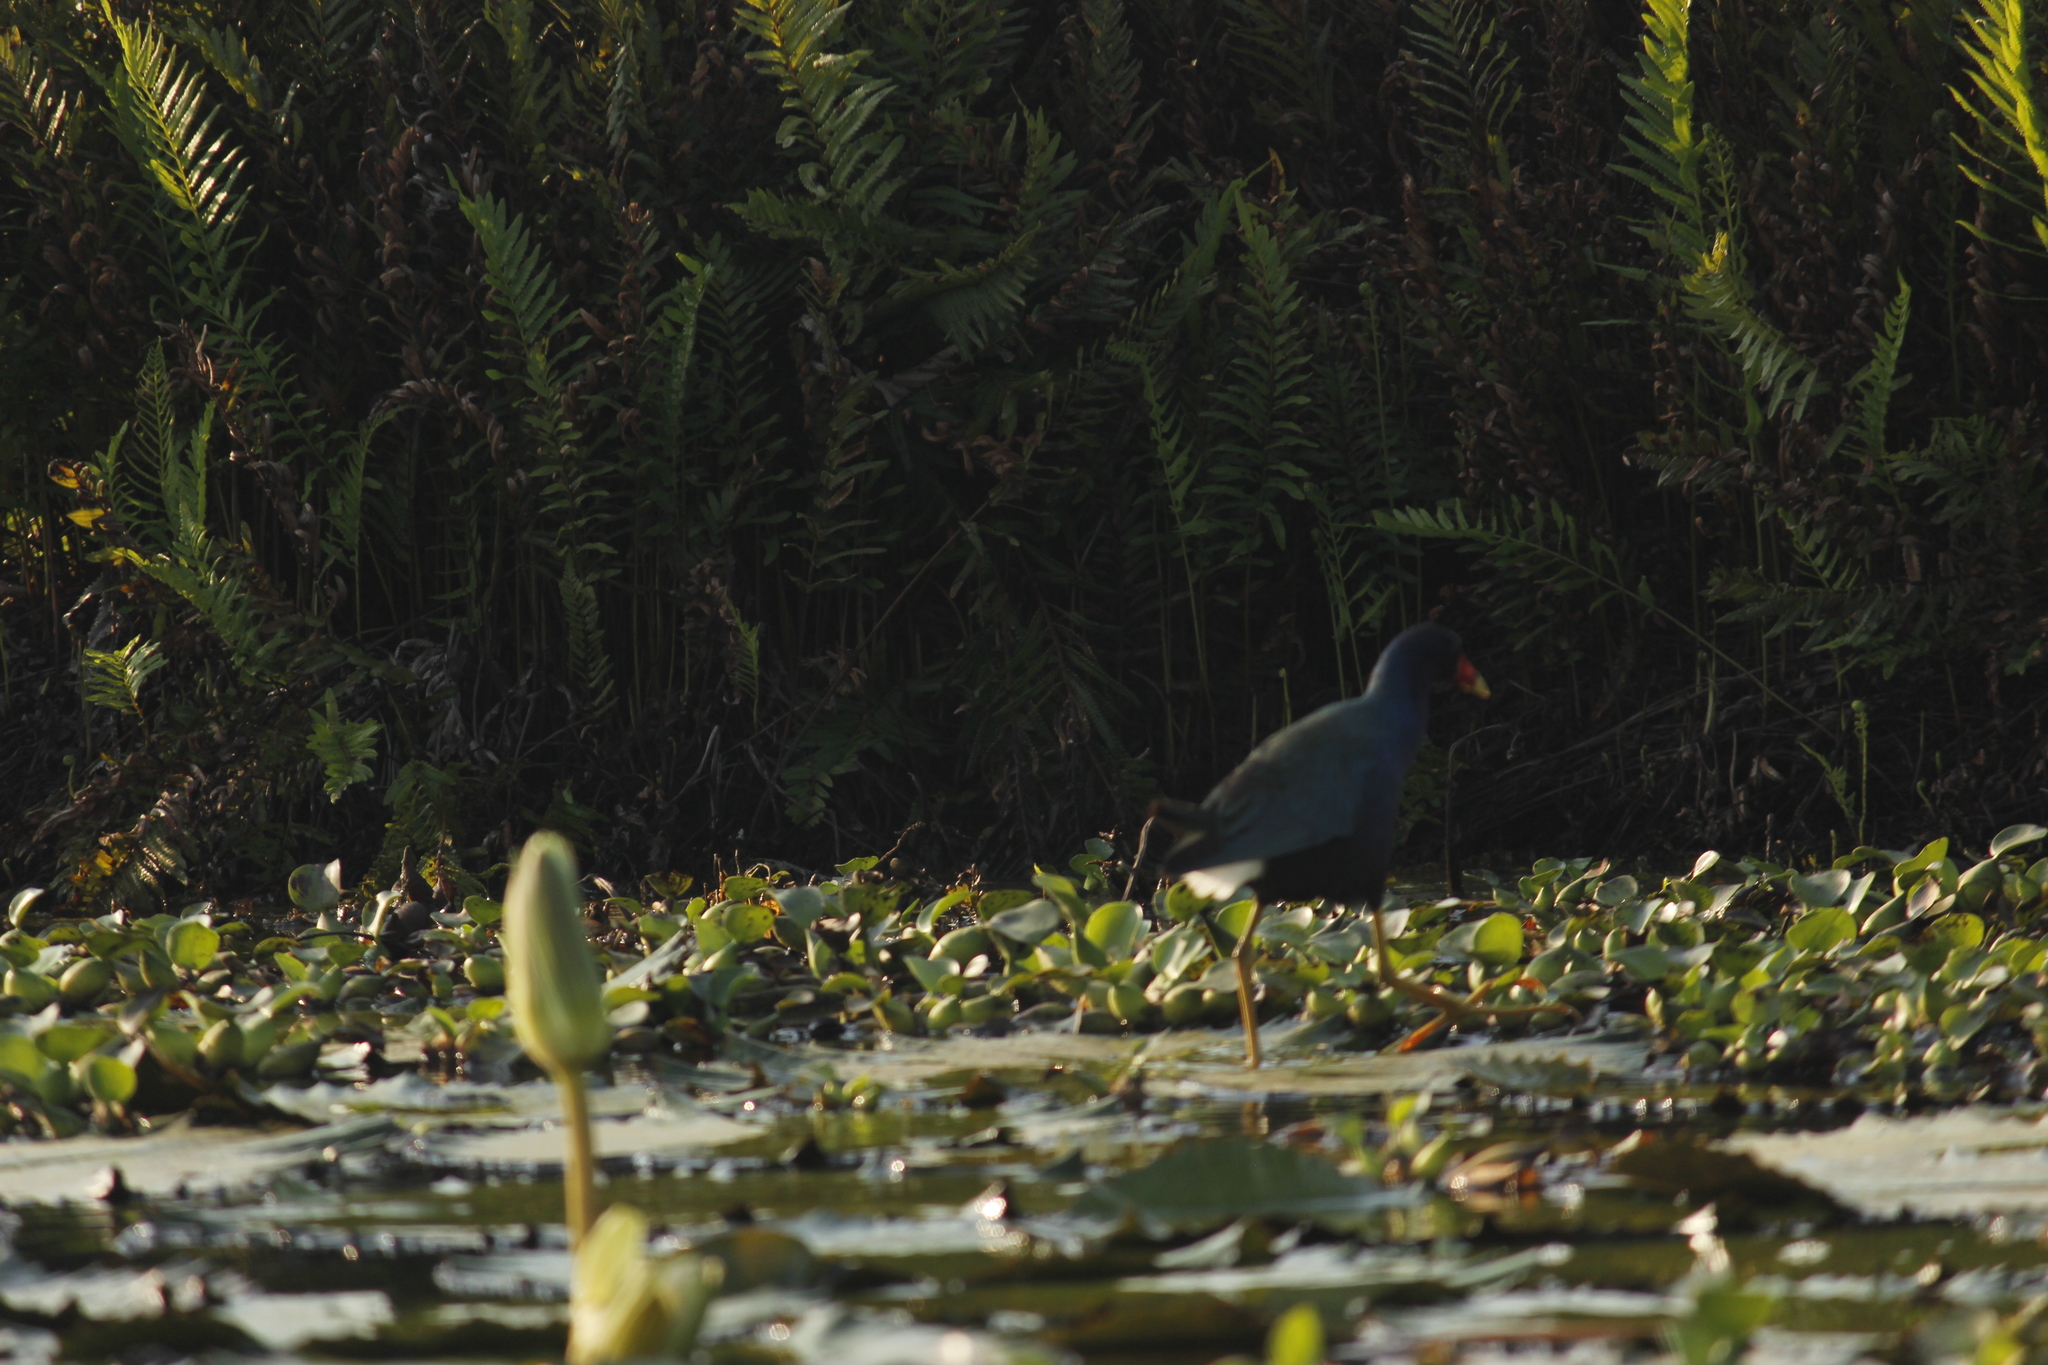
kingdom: Animalia
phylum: Chordata
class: Aves
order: Gruiformes
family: Rallidae
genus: Porphyrio
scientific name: Porphyrio martinica
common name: Purple gallinule
